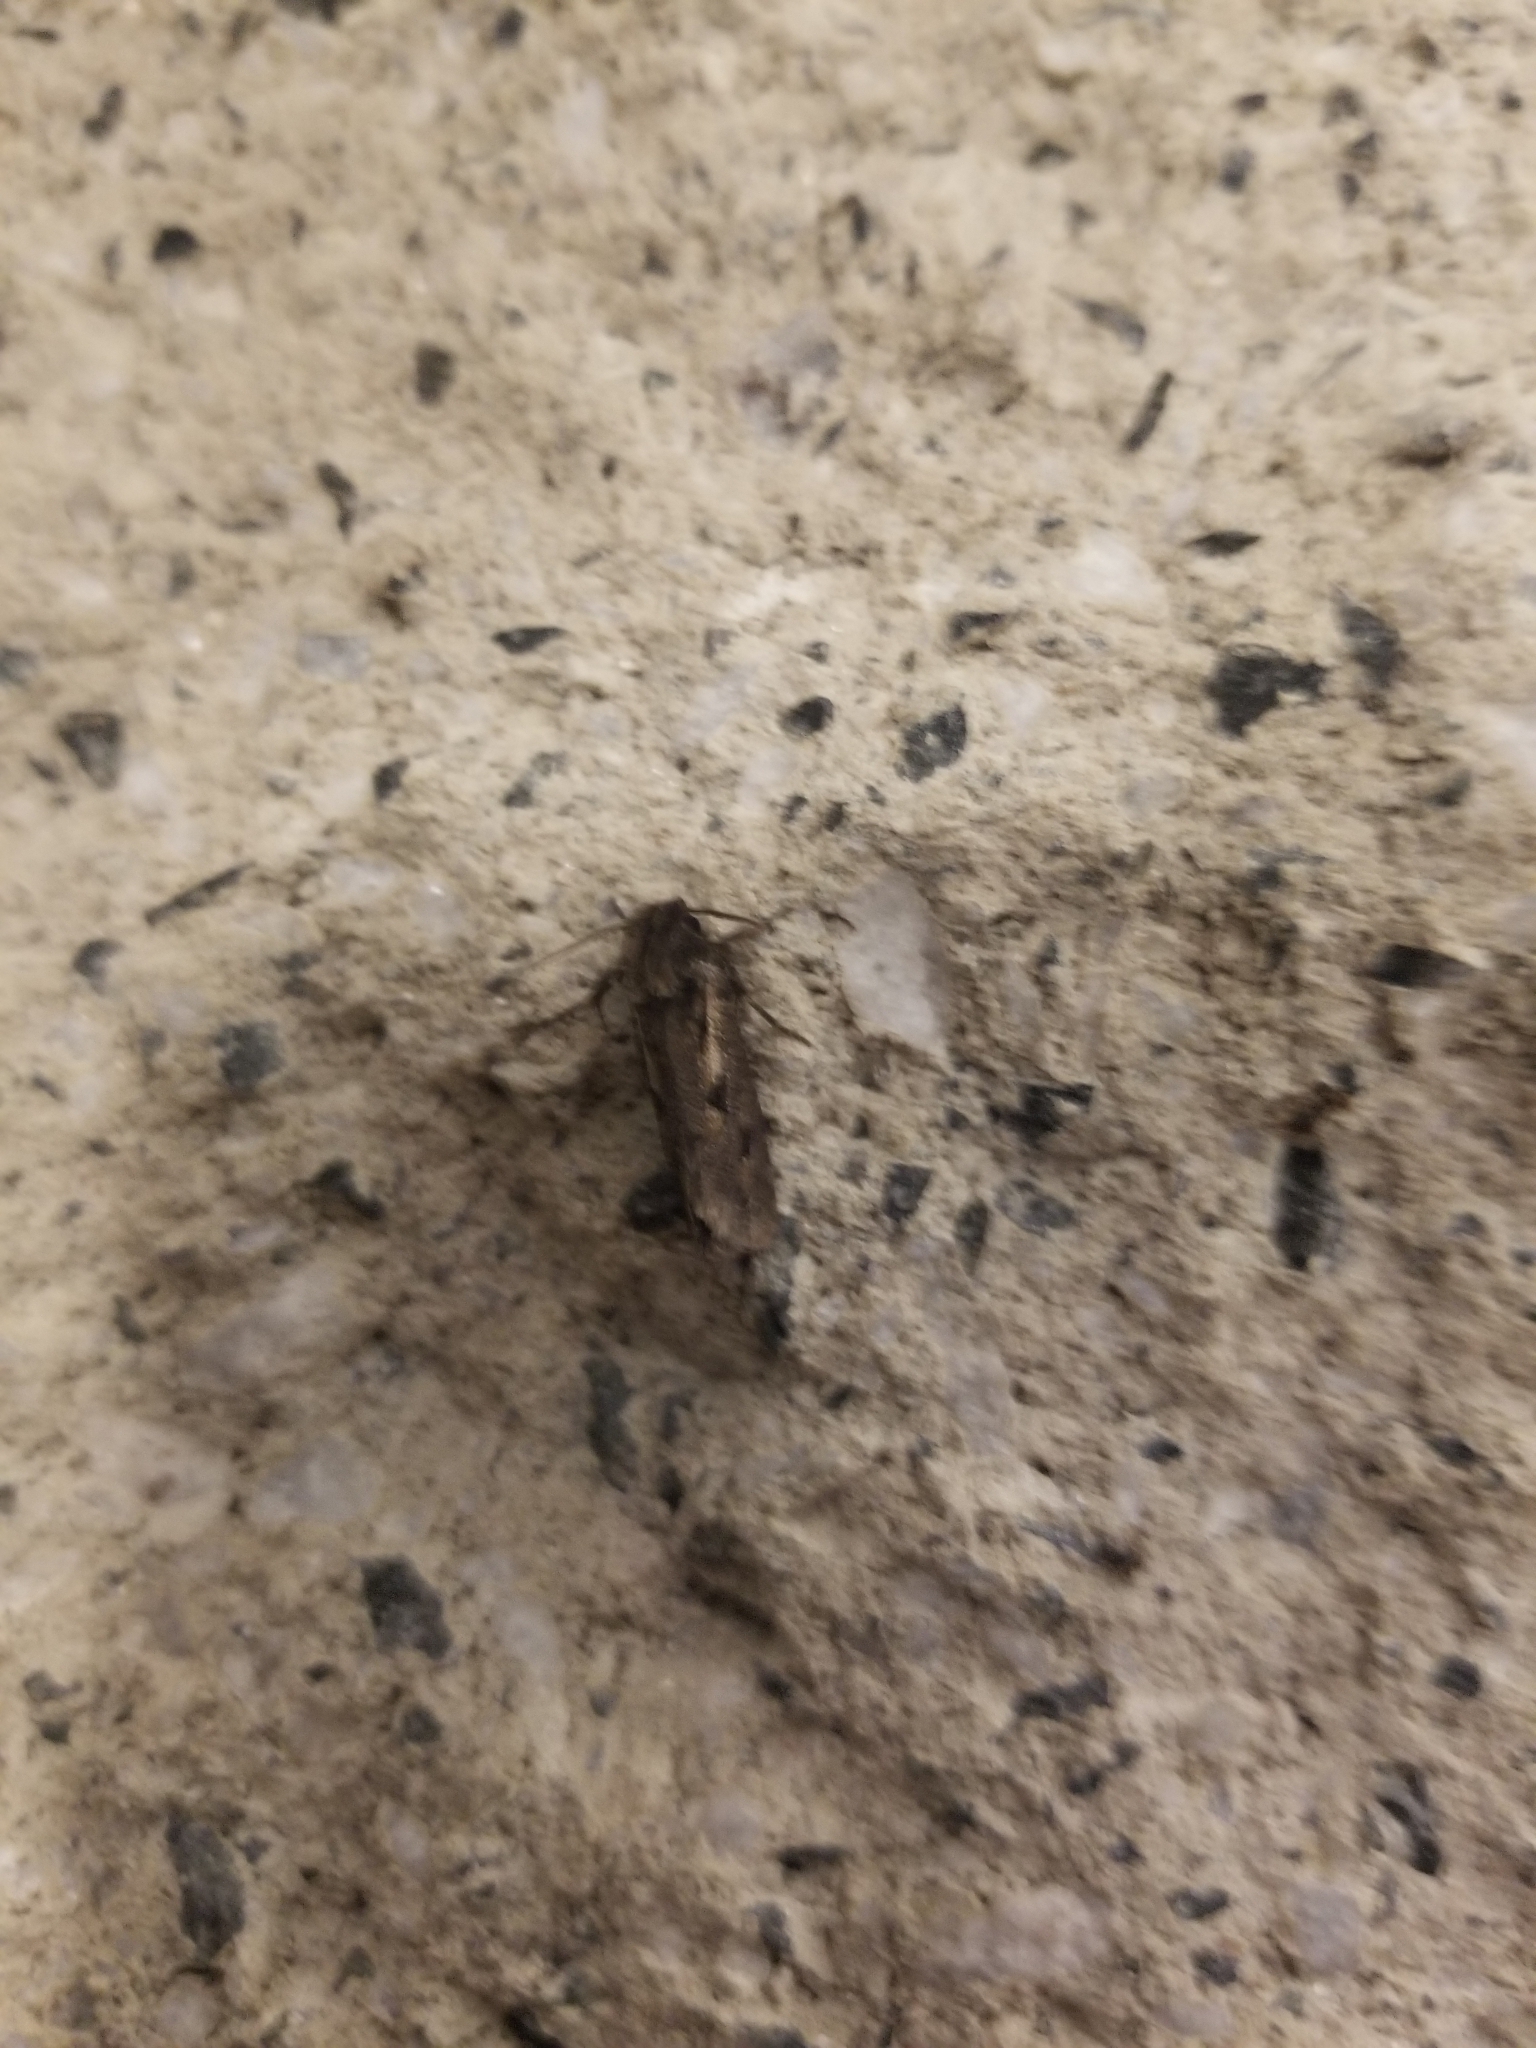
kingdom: Animalia
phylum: Arthropoda
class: Insecta
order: Lepidoptera
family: Tineidae
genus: Acrolophus
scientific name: Acrolophus popeanella
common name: Clemens' grass tubeworm moth
